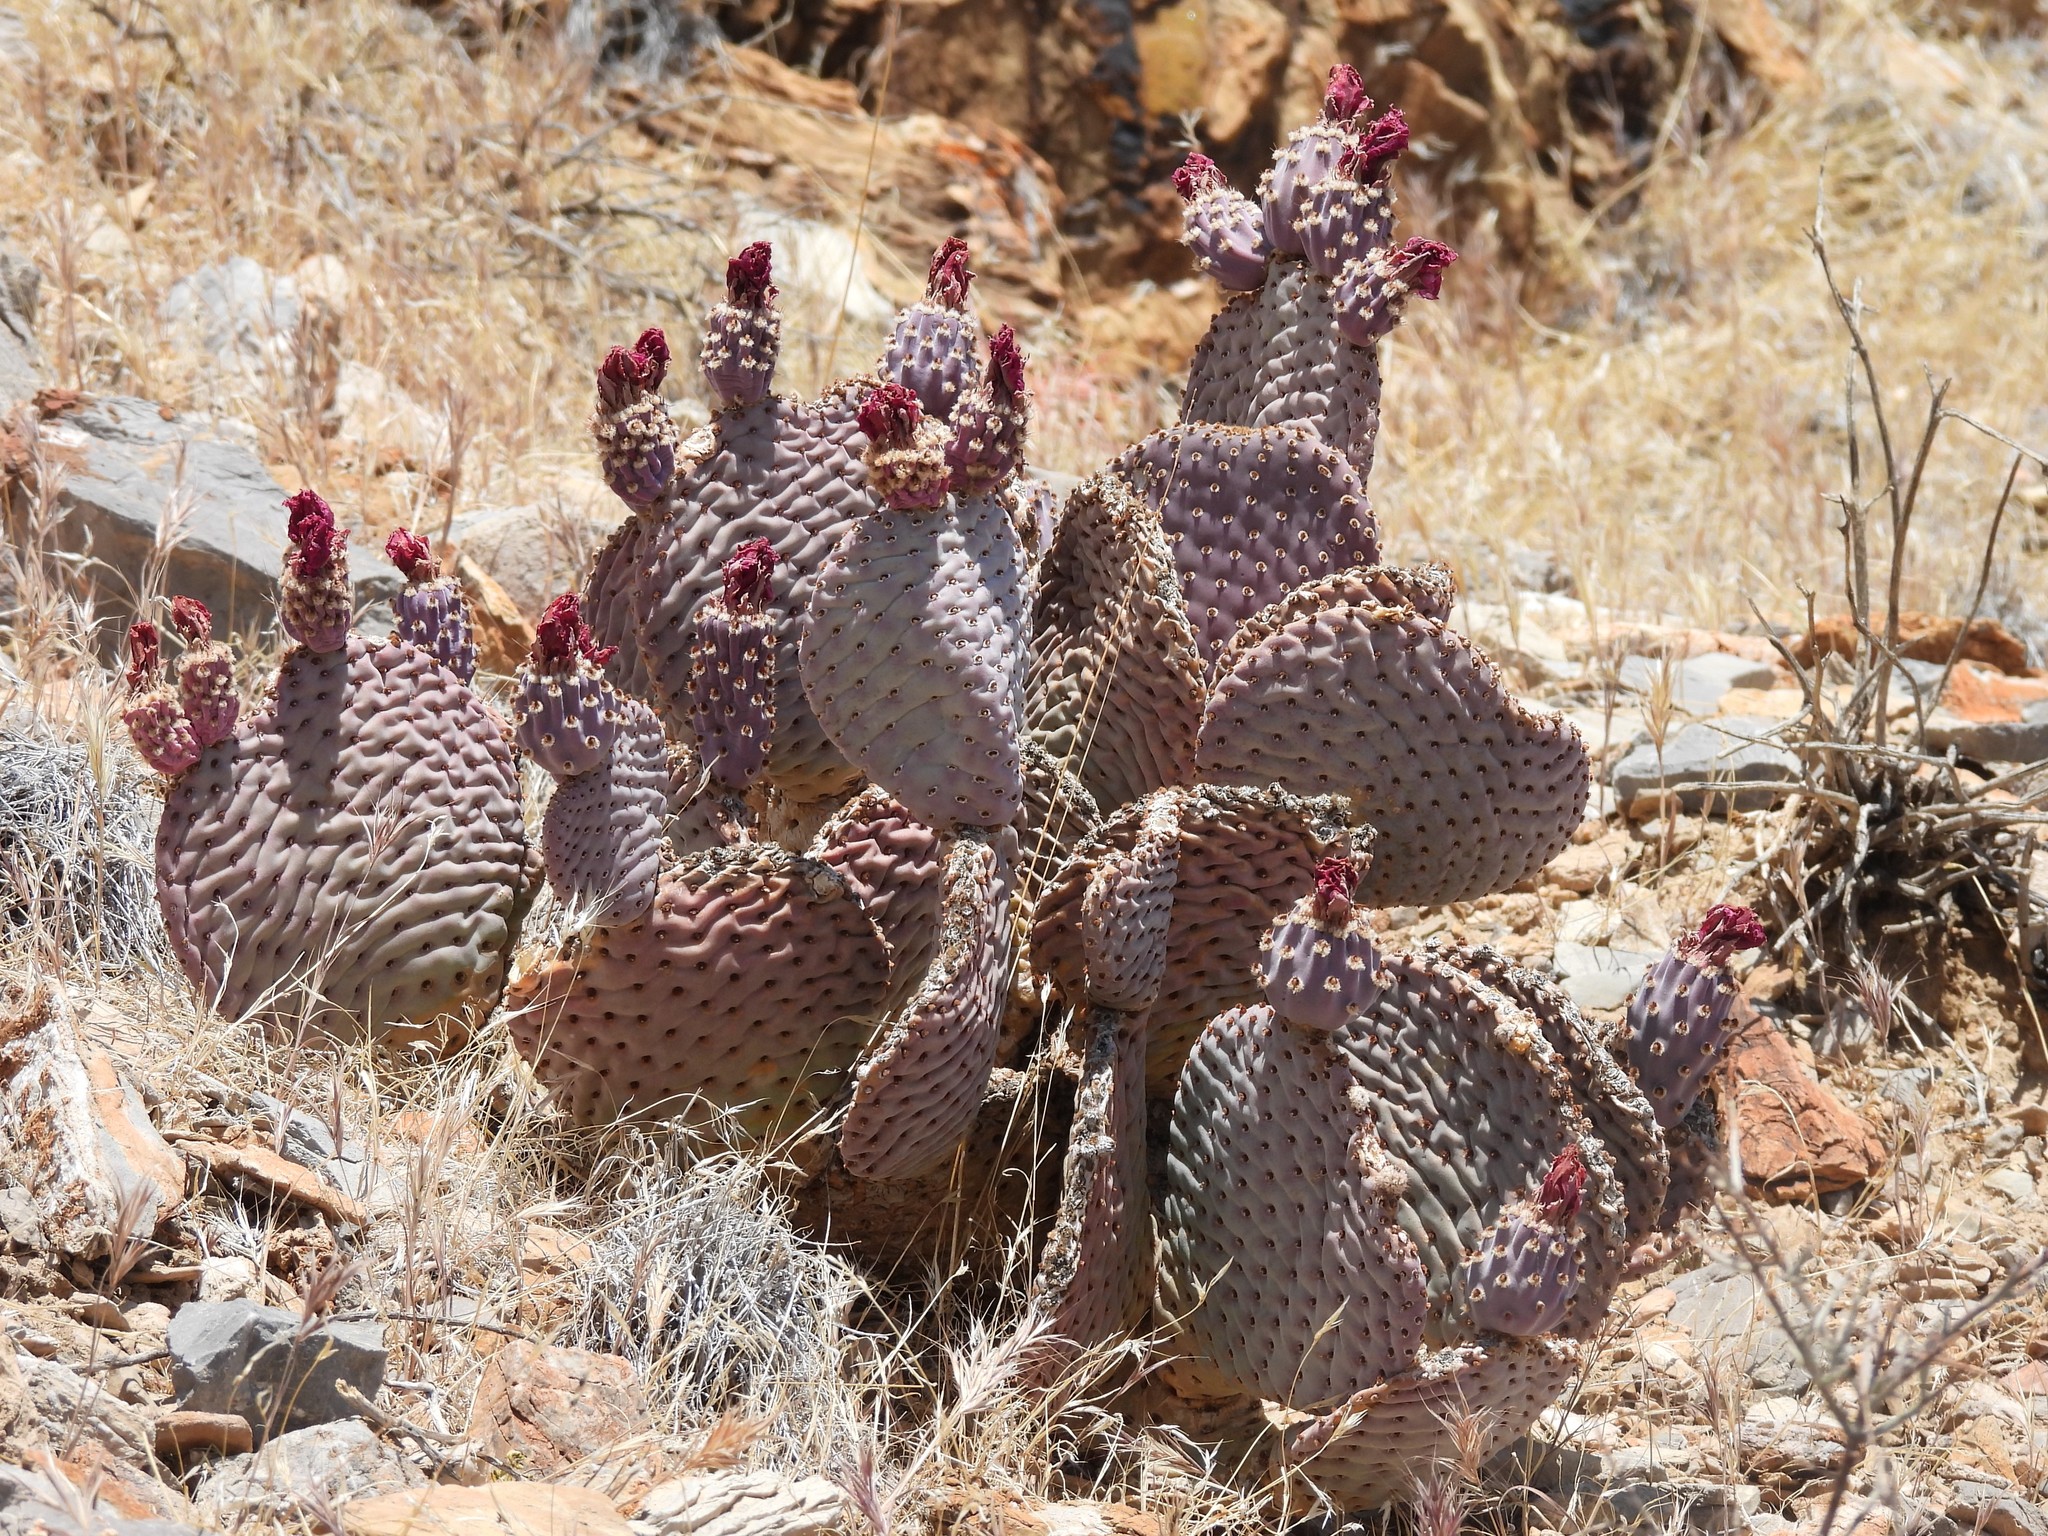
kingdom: Plantae
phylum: Tracheophyta
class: Magnoliopsida
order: Caryophyllales
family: Cactaceae
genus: Opuntia
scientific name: Opuntia basilaris
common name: Beavertail prickly-pear
